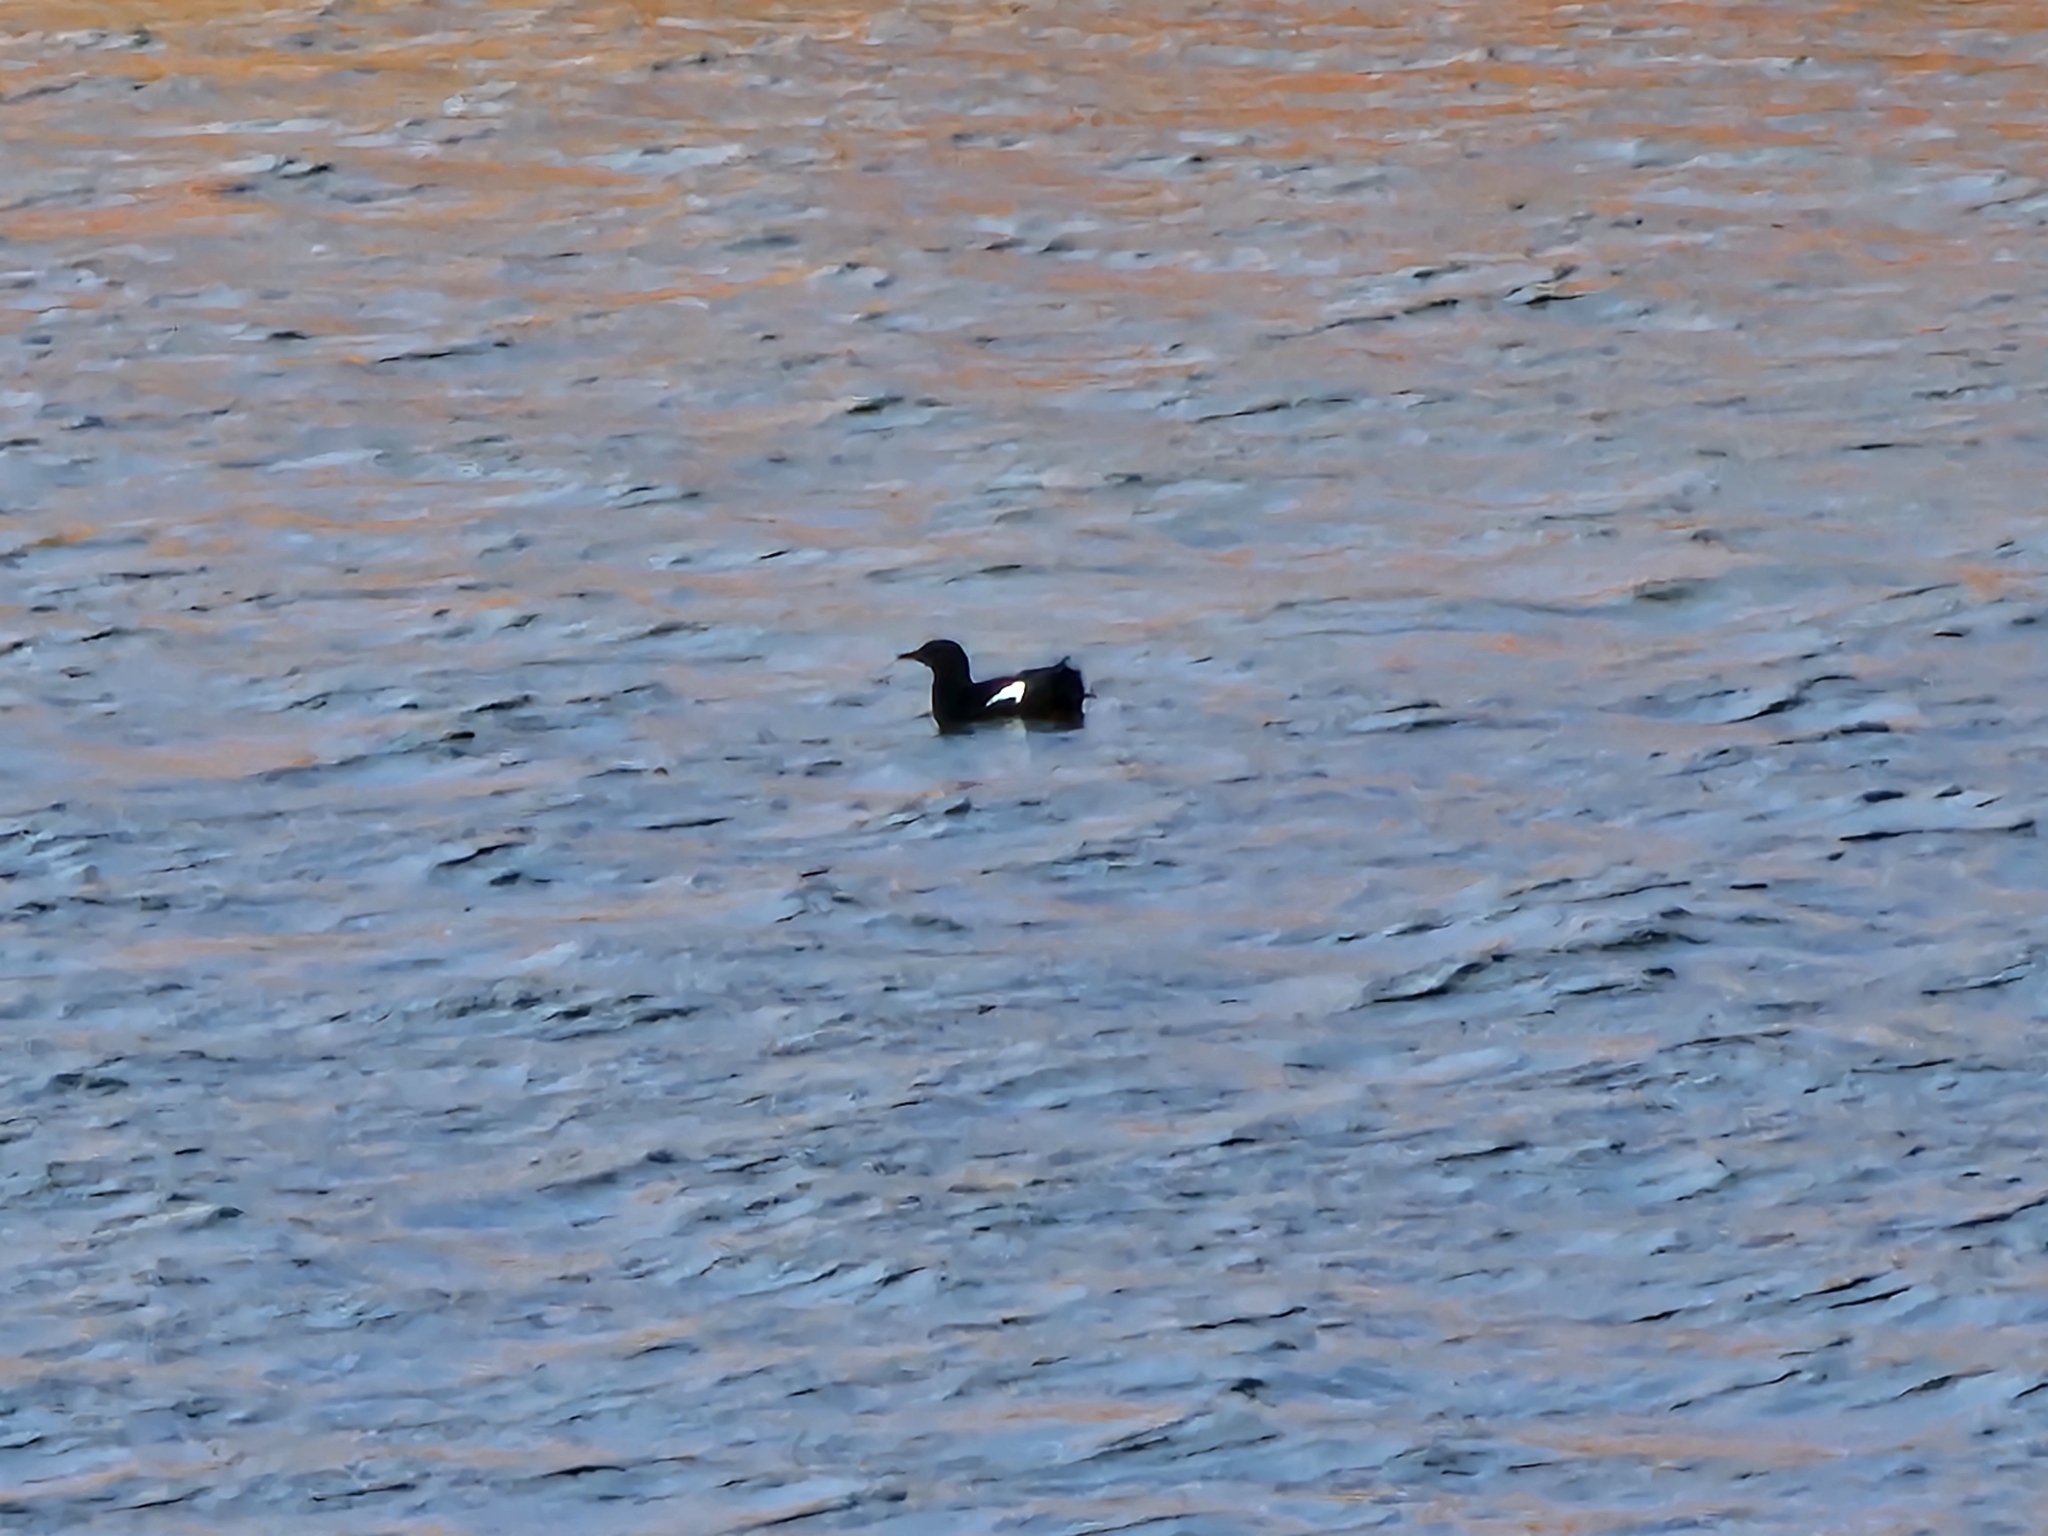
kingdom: Animalia
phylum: Chordata
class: Aves
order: Charadriiformes
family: Alcidae
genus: Cepphus
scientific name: Cepphus grylle
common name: Black guillemot
